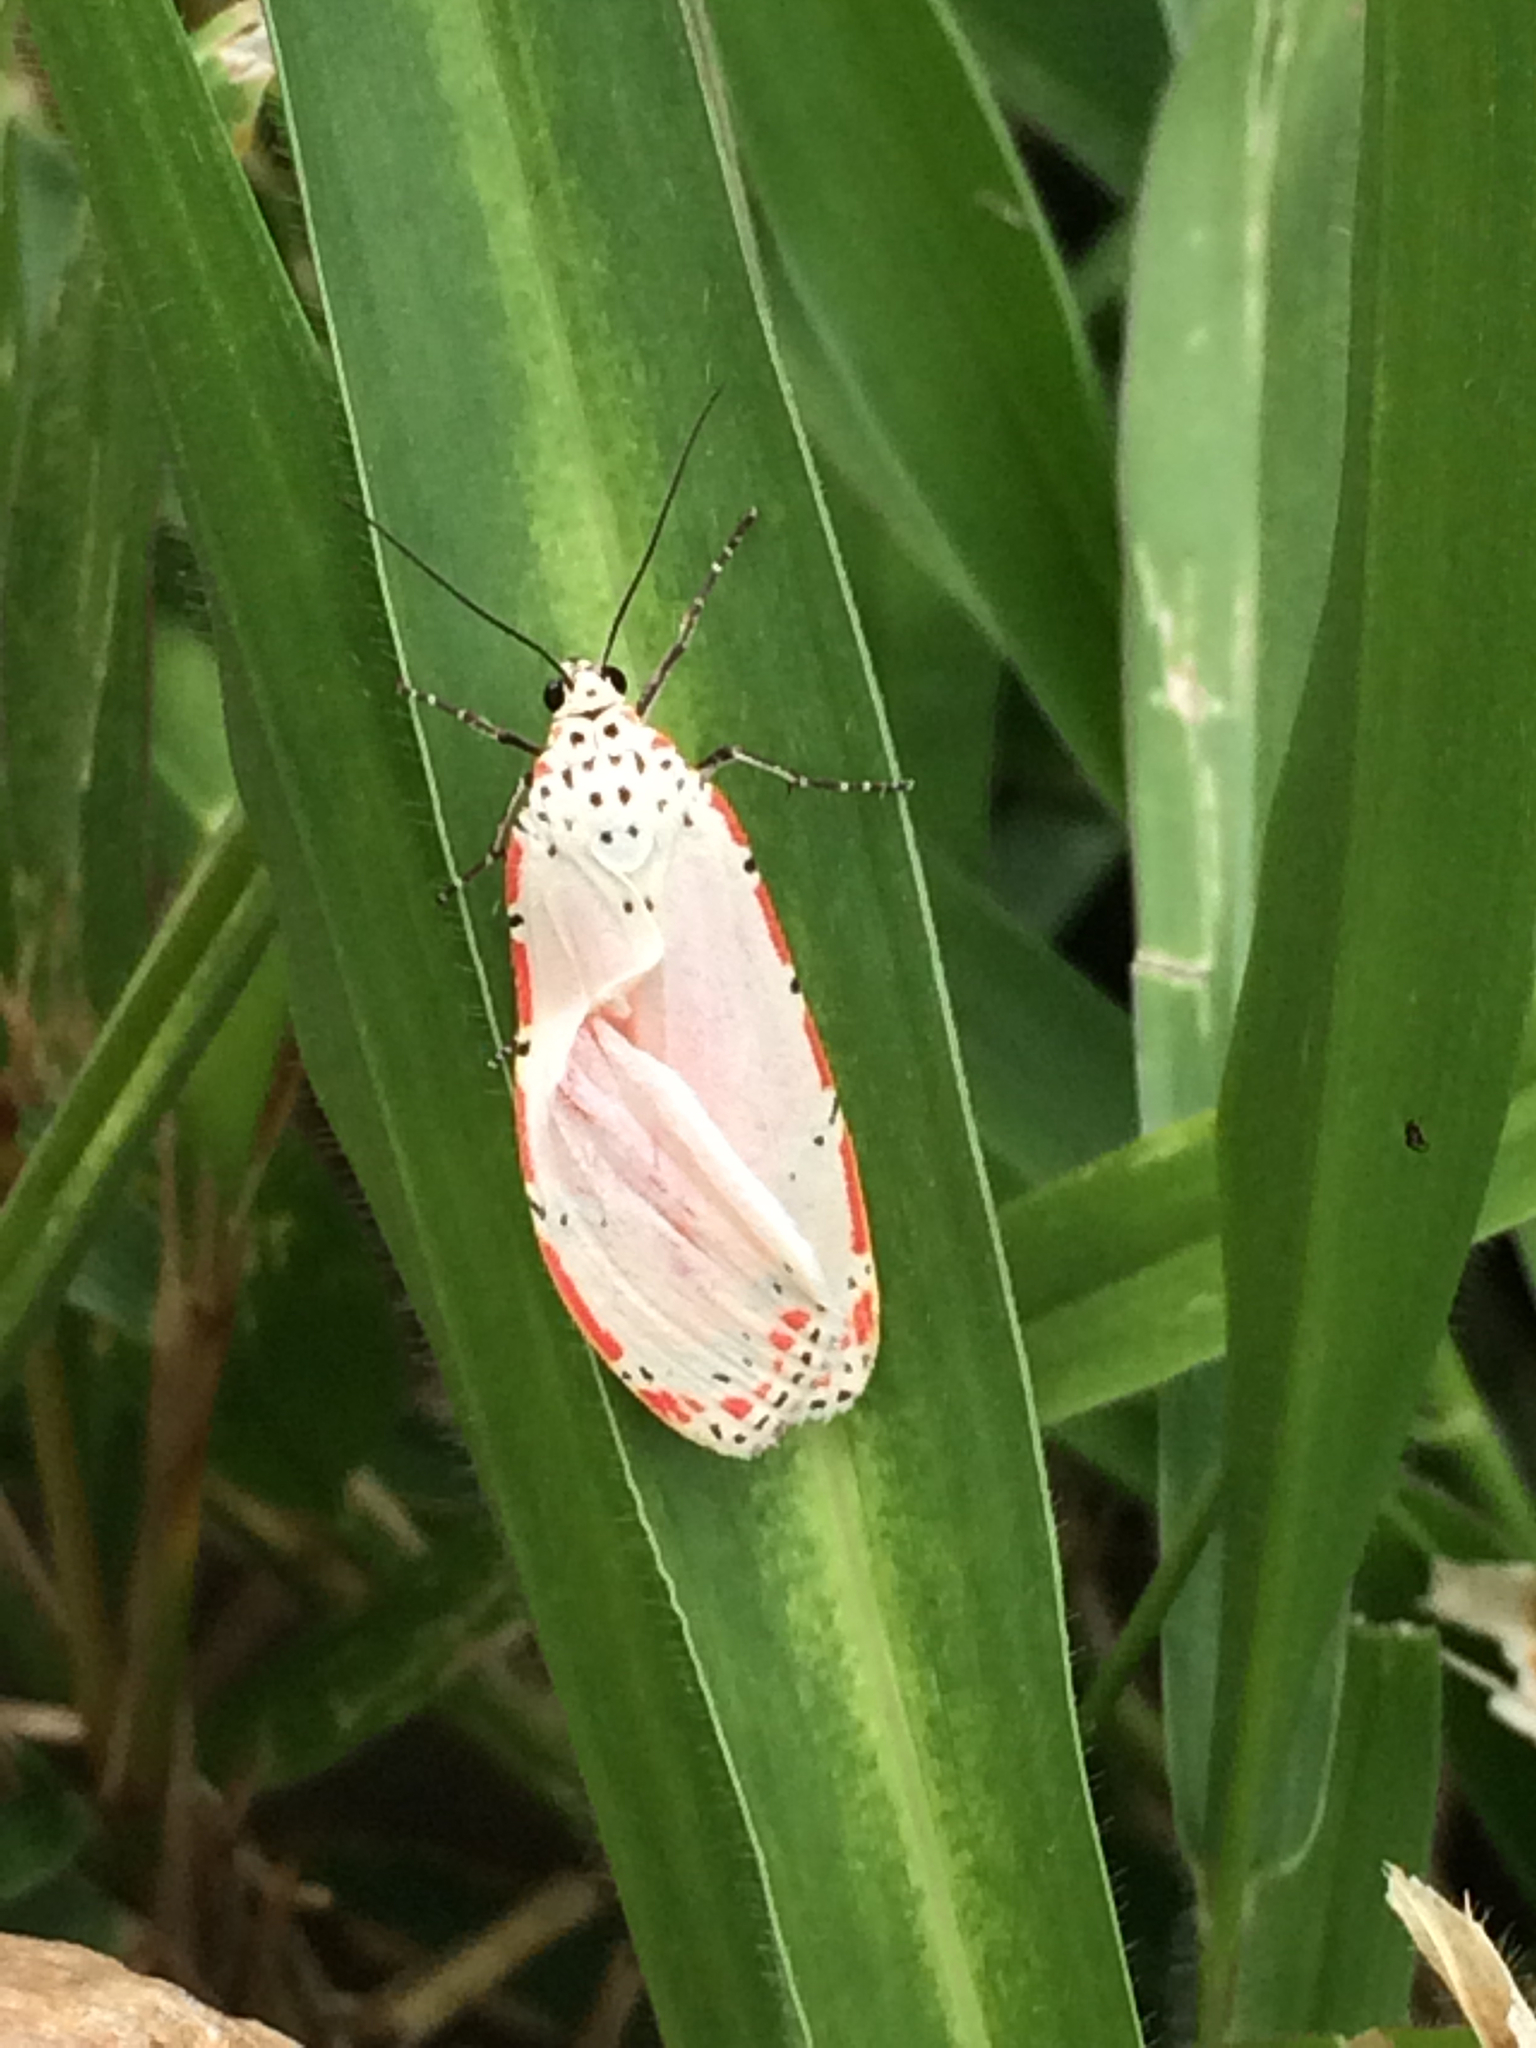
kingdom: Animalia
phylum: Arthropoda
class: Insecta
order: Lepidoptera
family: Erebidae
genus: Utetheisa
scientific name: Utetheisa ornatrix
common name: Beautiful utetheisa
